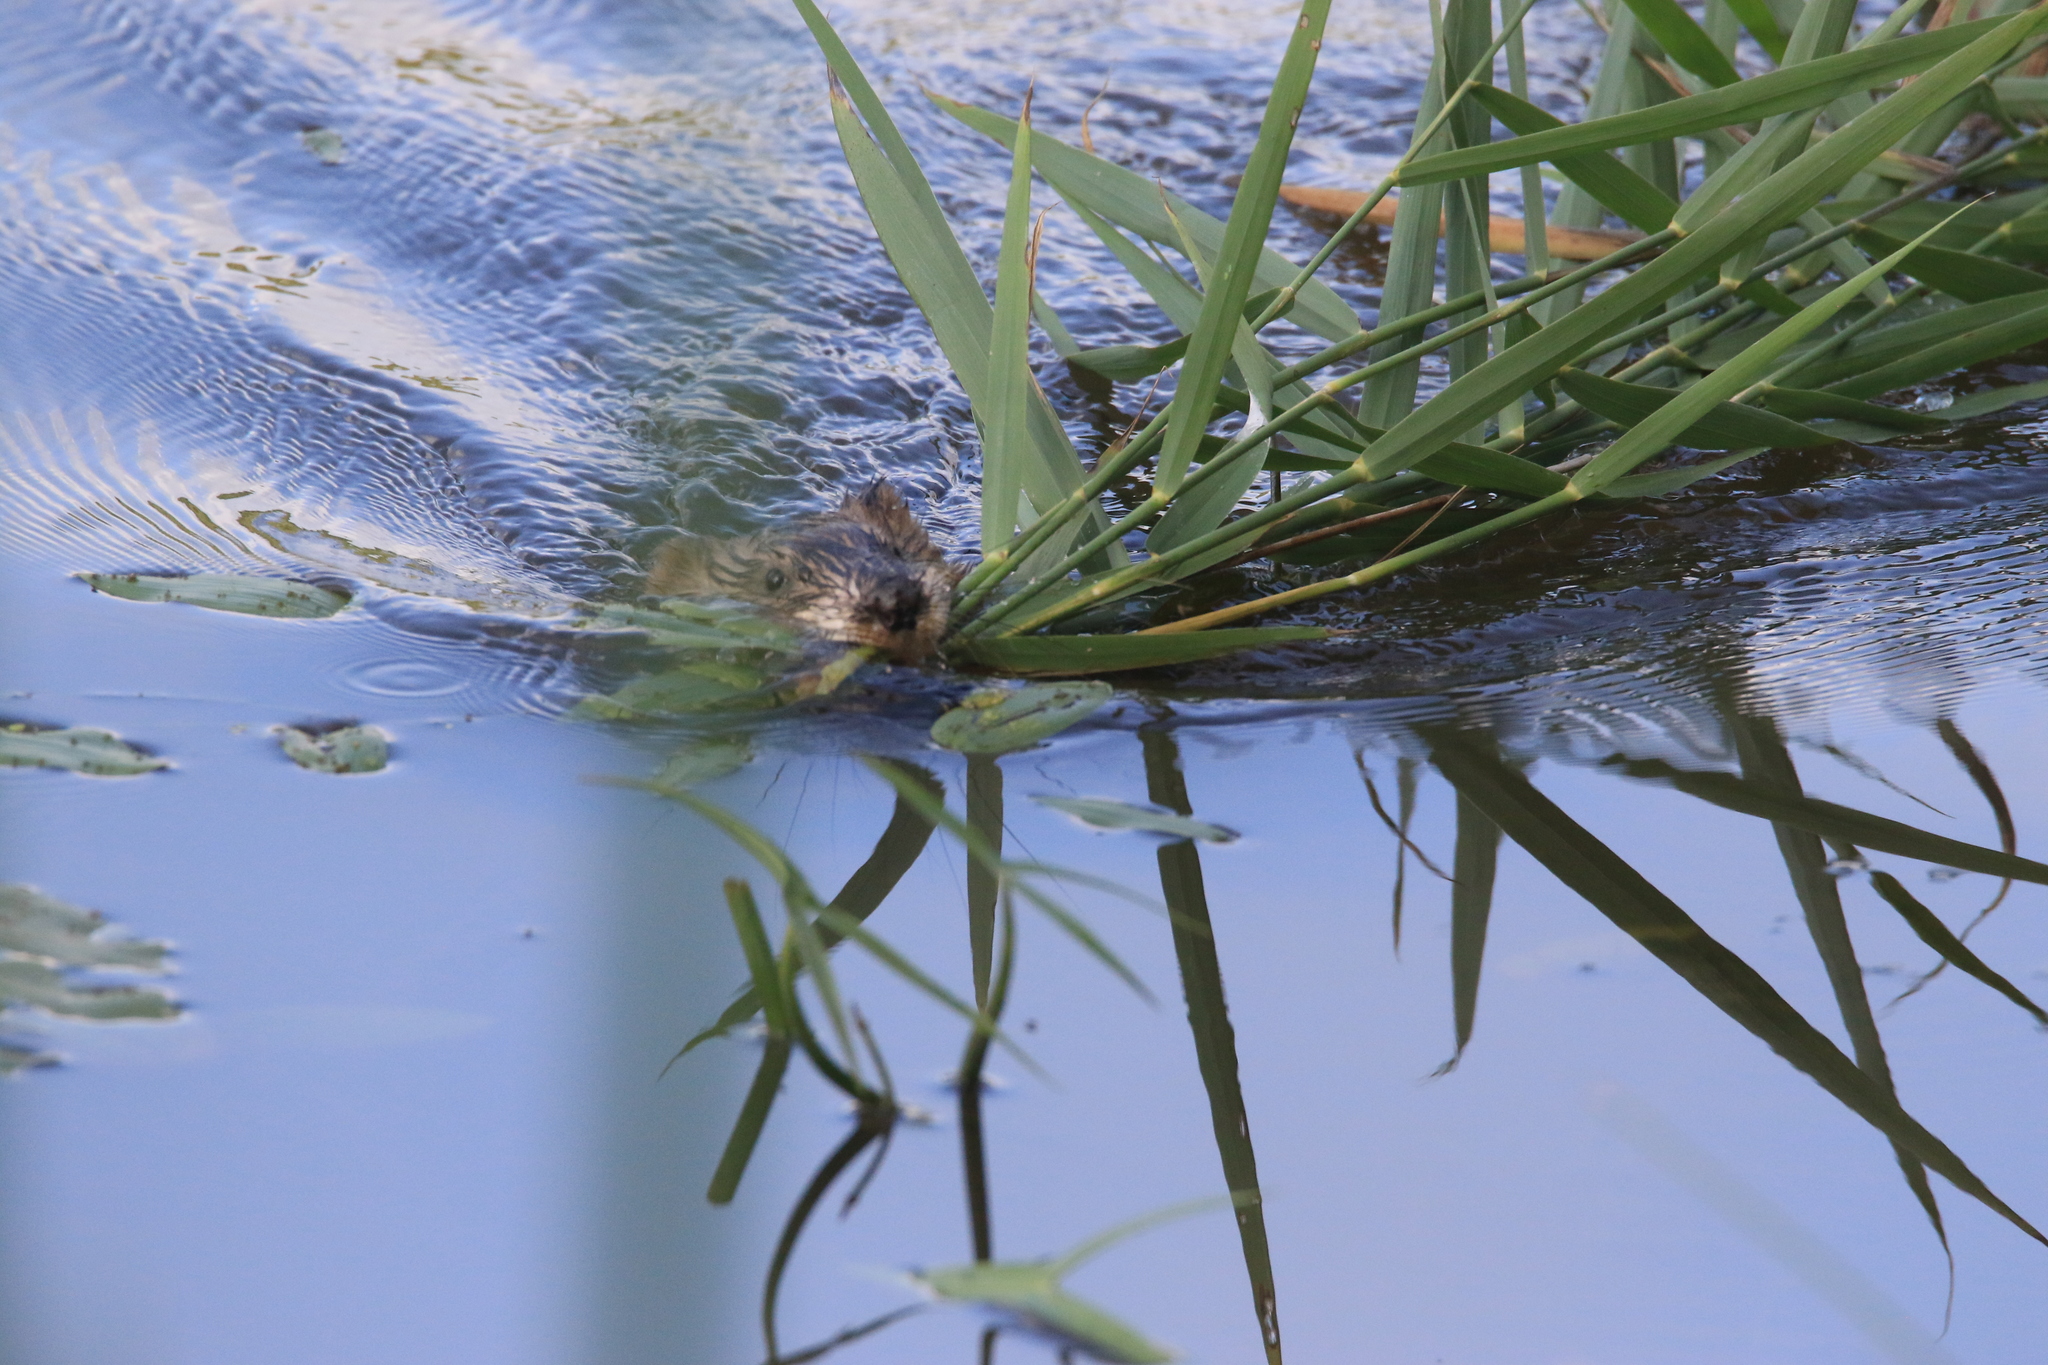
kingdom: Animalia
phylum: Chordata
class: Mammalia
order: Rodentia
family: Cricetidae
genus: Ondatra
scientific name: Ondatra zibethicus
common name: Muskrat
